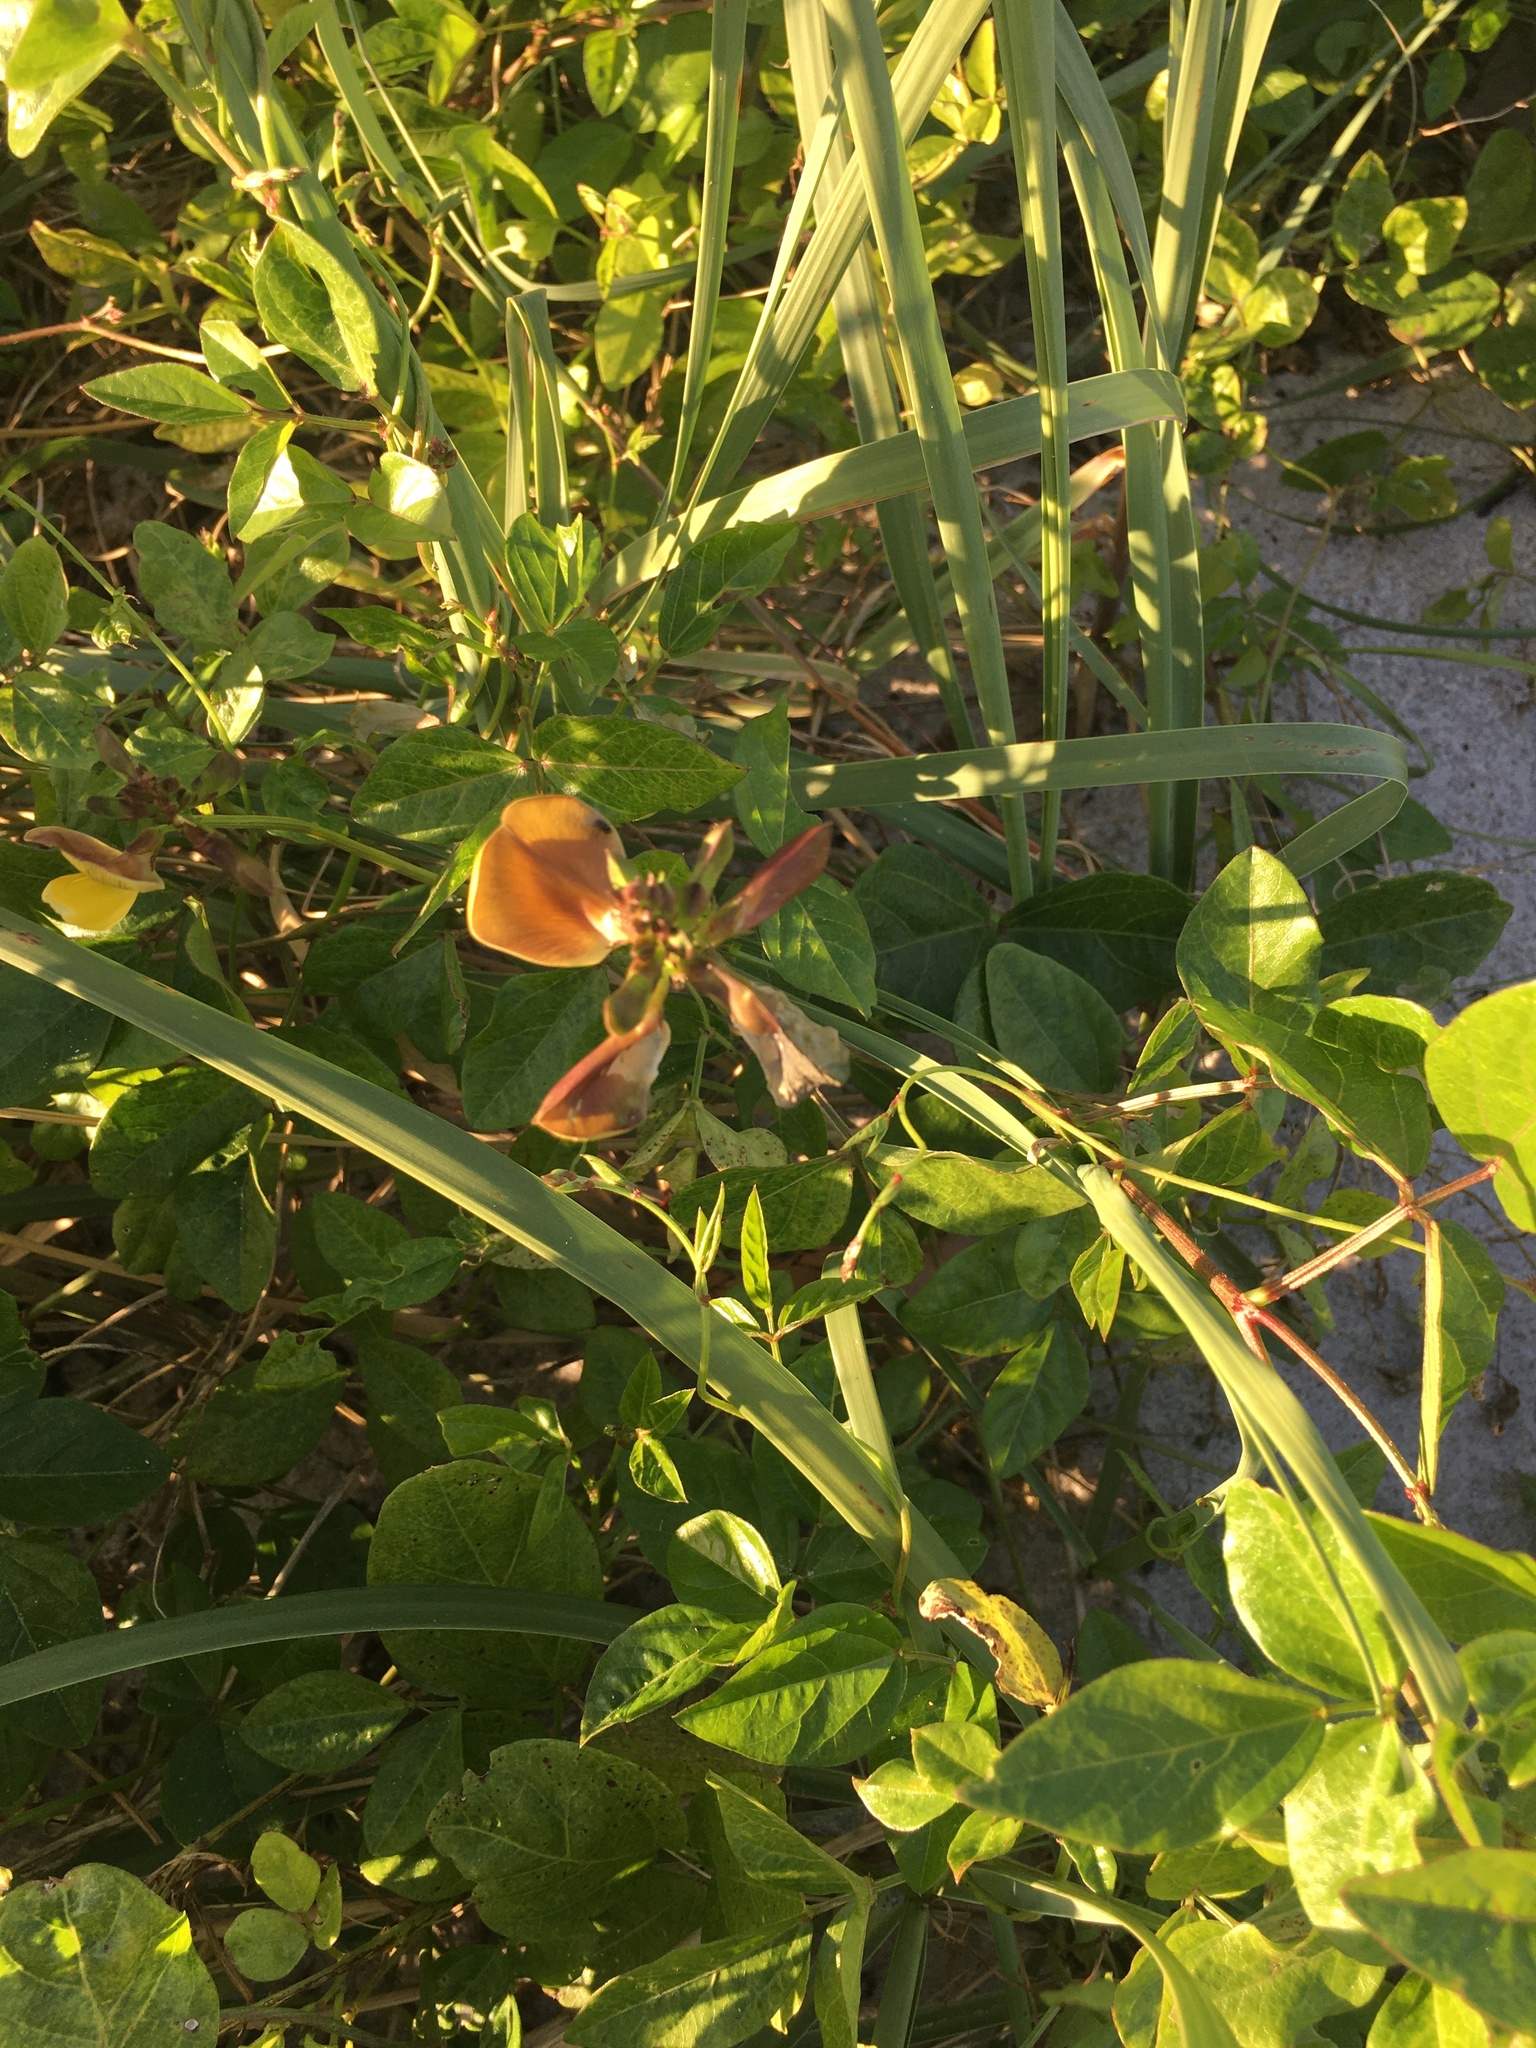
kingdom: Plantae
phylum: Tracheophyta
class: Magnoliopsida
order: Fabales
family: Fabaceae
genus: Vigna
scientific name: Vigna luteola
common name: Hairypod cowpea
